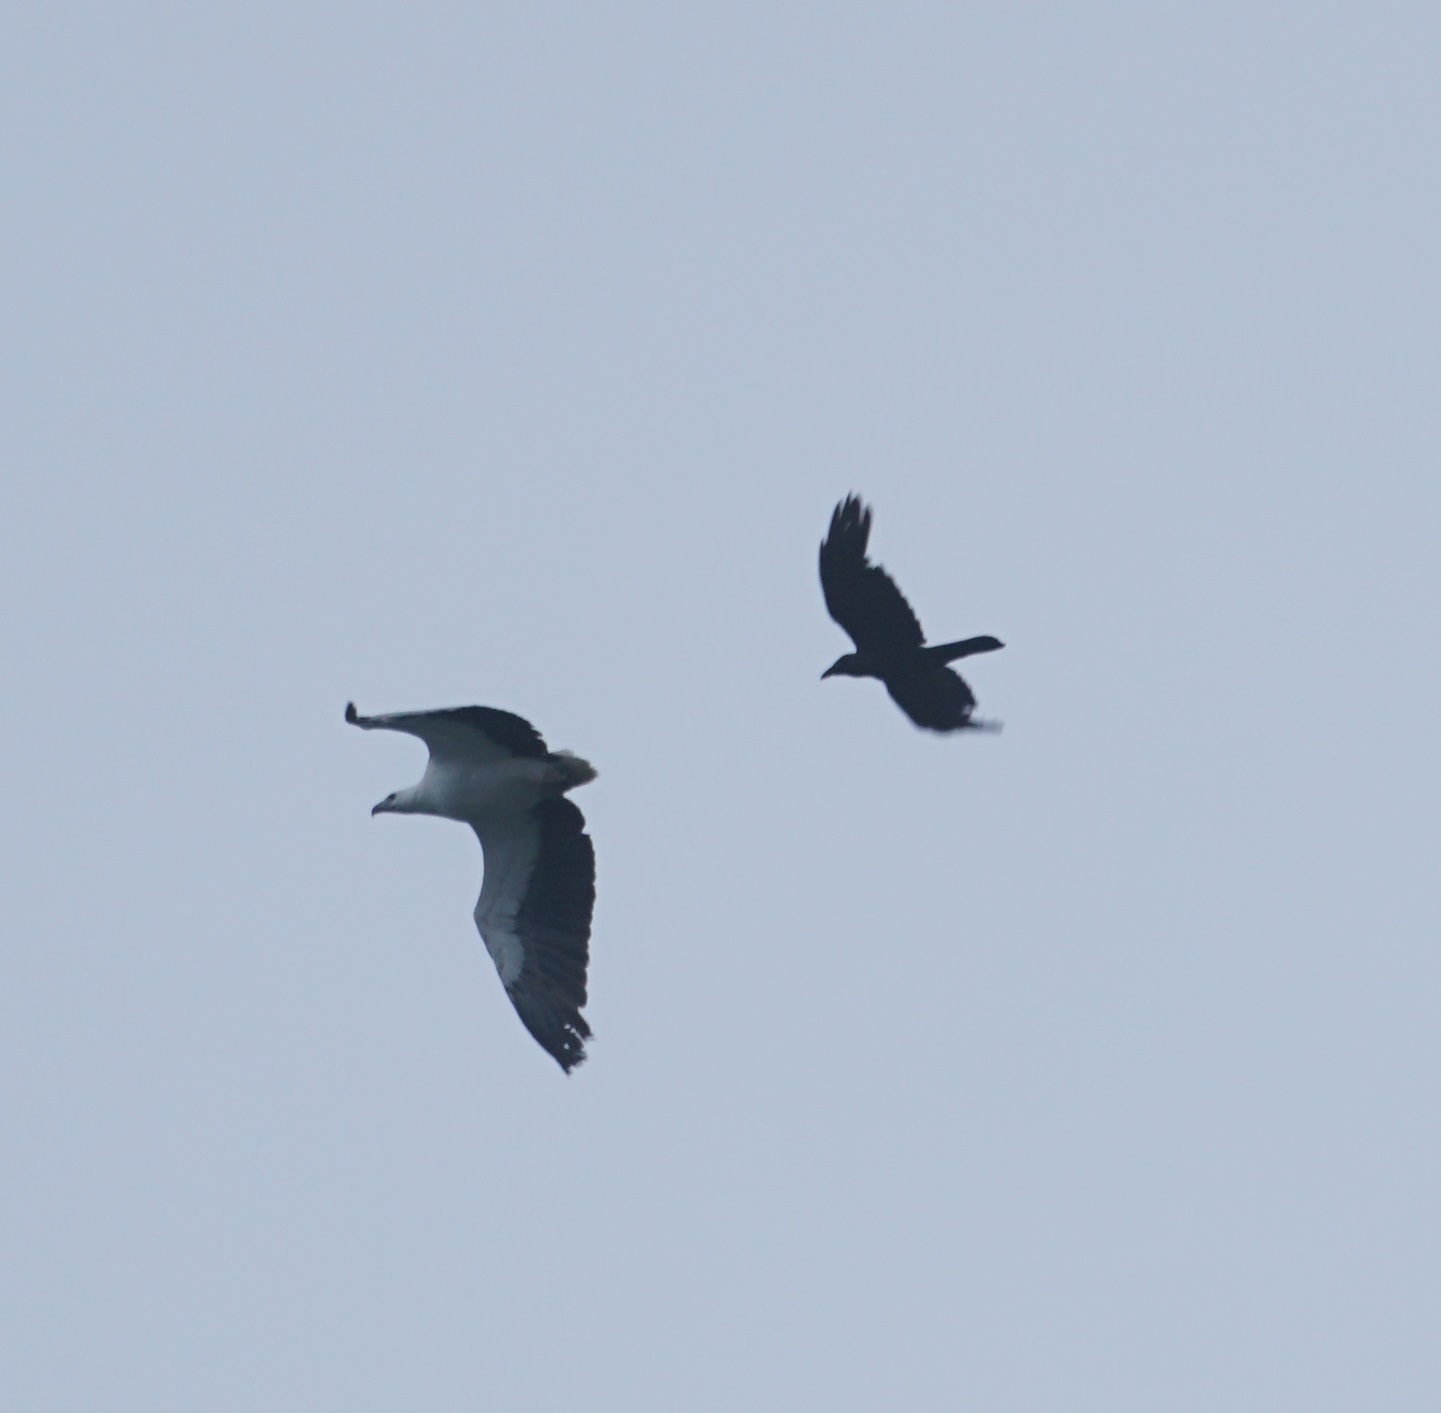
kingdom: Animalia
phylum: Chordata
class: Aves
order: Accipitriformes
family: Accipitridae
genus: Haliaeetus
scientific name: Haliaeetus leucogaster
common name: White-bellied sea eagle
